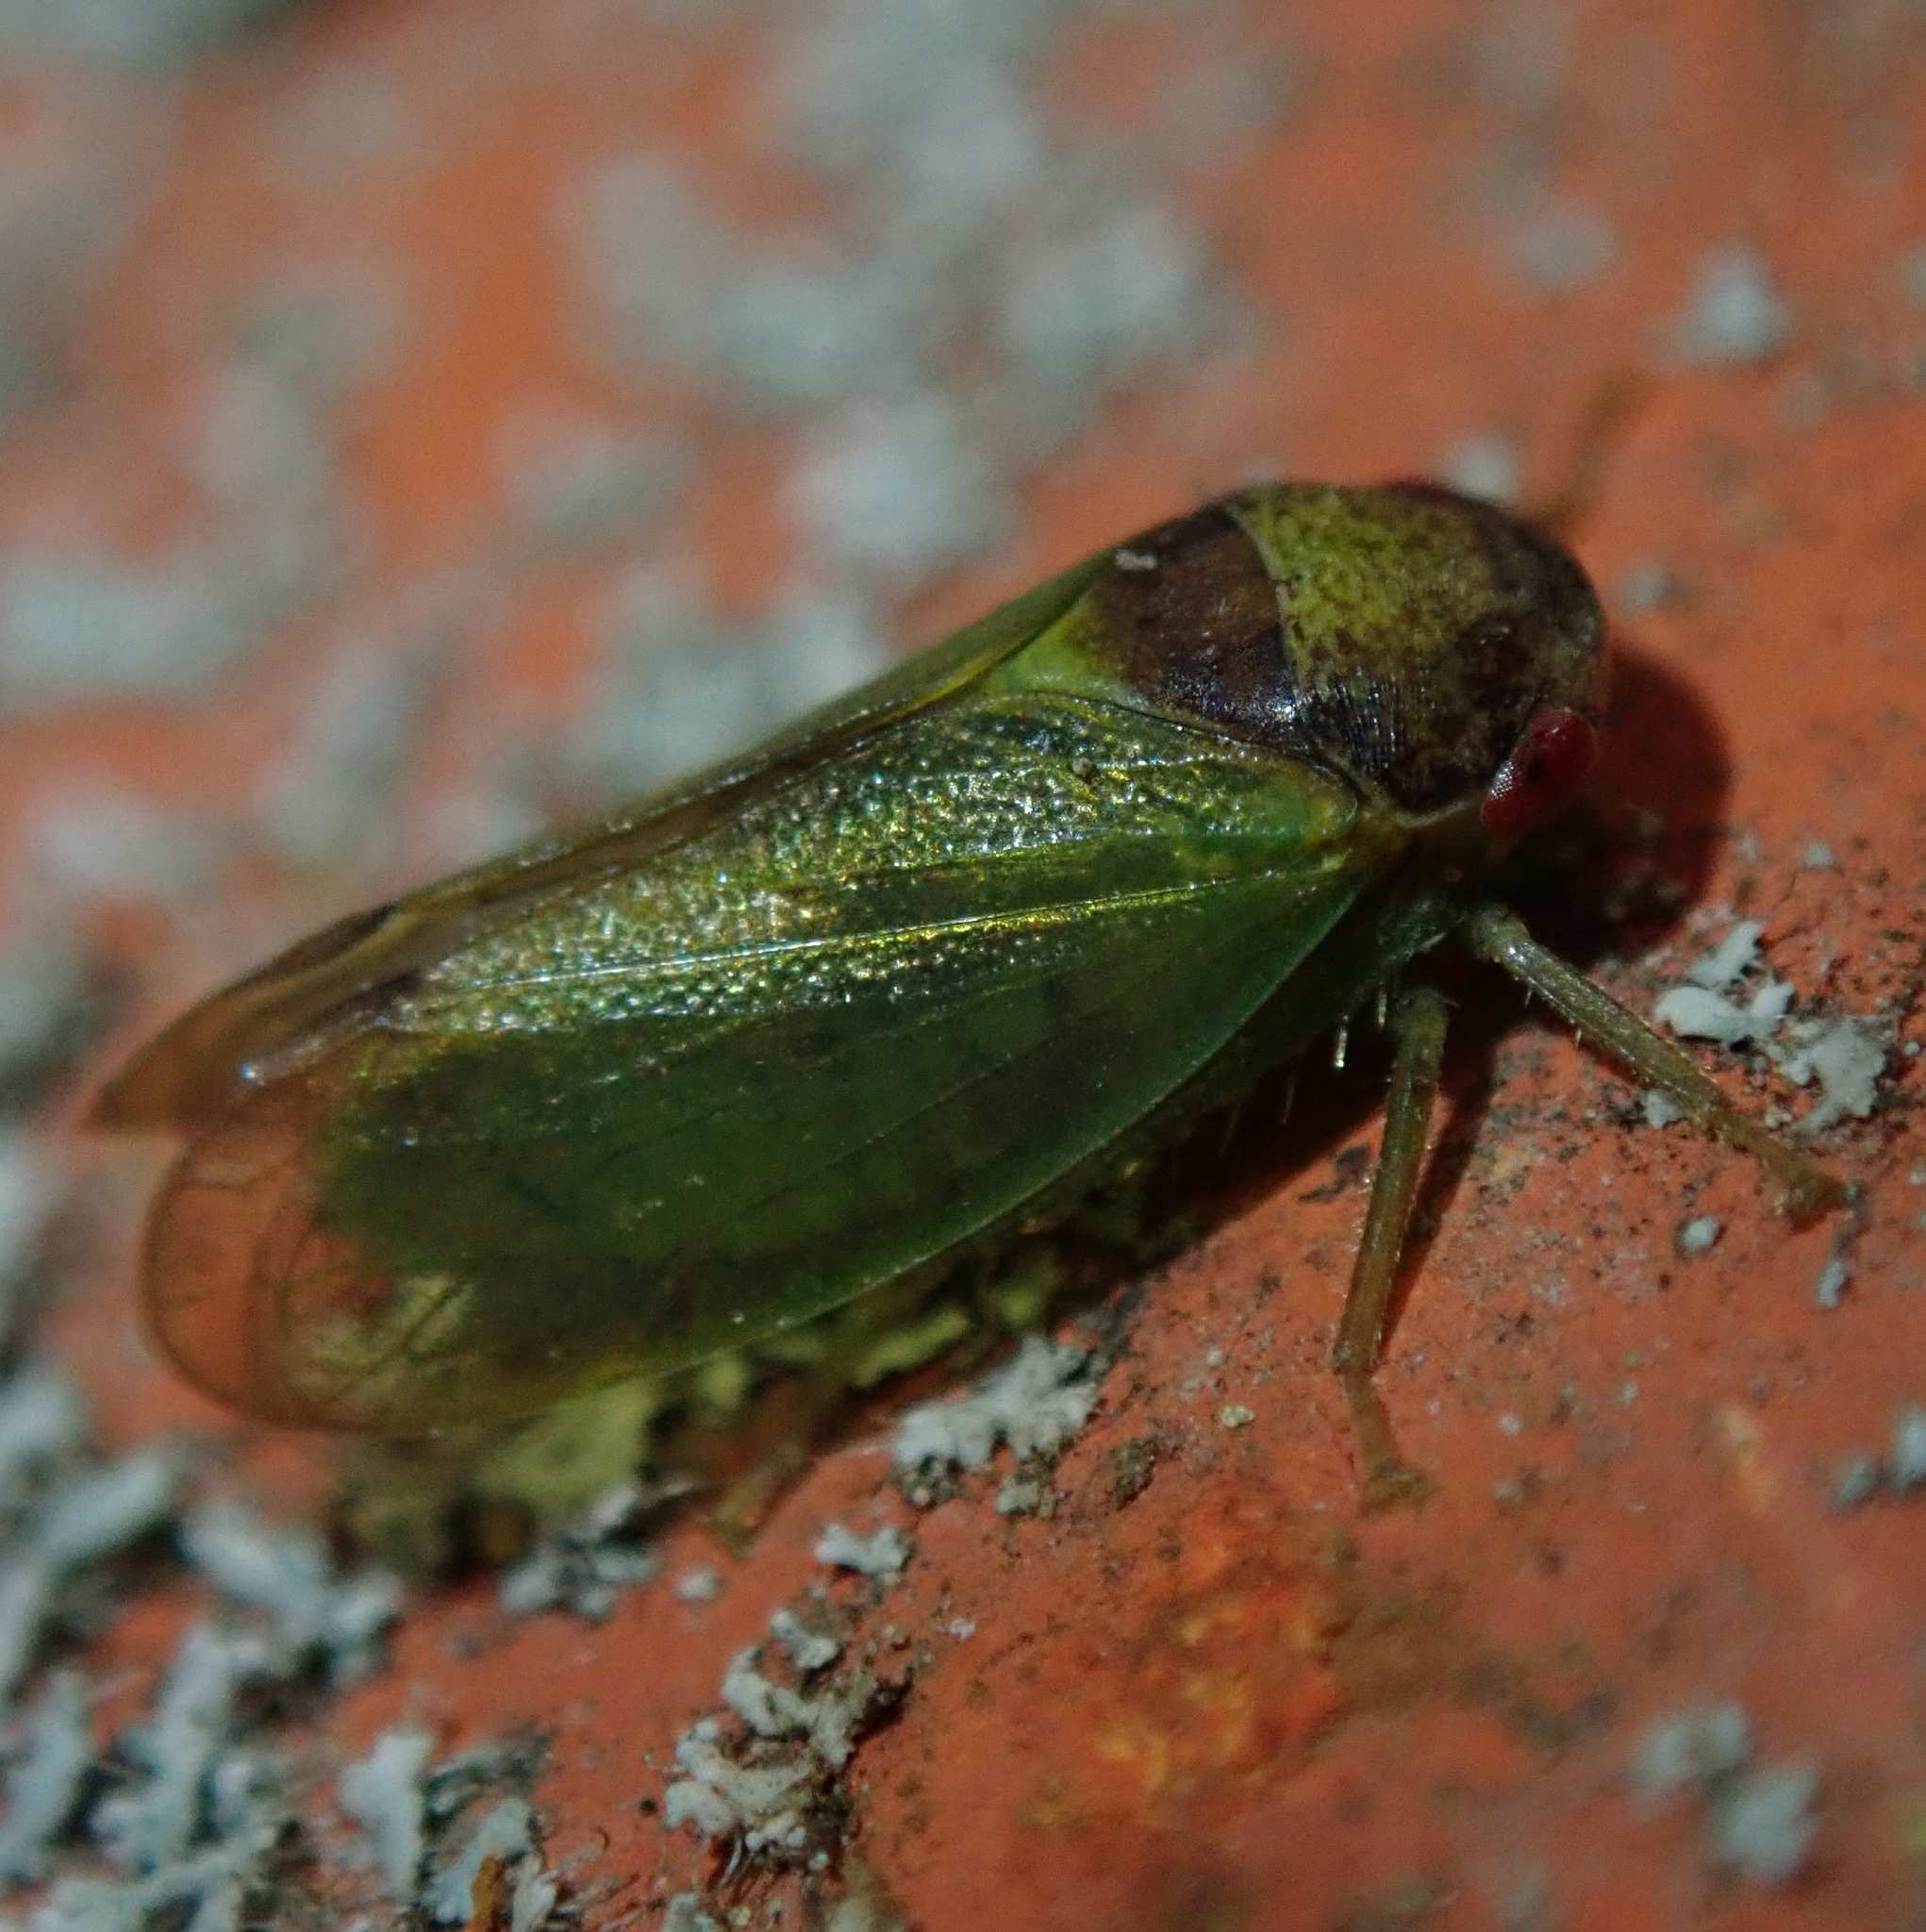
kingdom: Animalia
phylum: Arthropoda
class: Insecta
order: Hemiptera
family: Cicadellidae
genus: Iassus
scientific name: Iassus lanio
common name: Leafhopper
